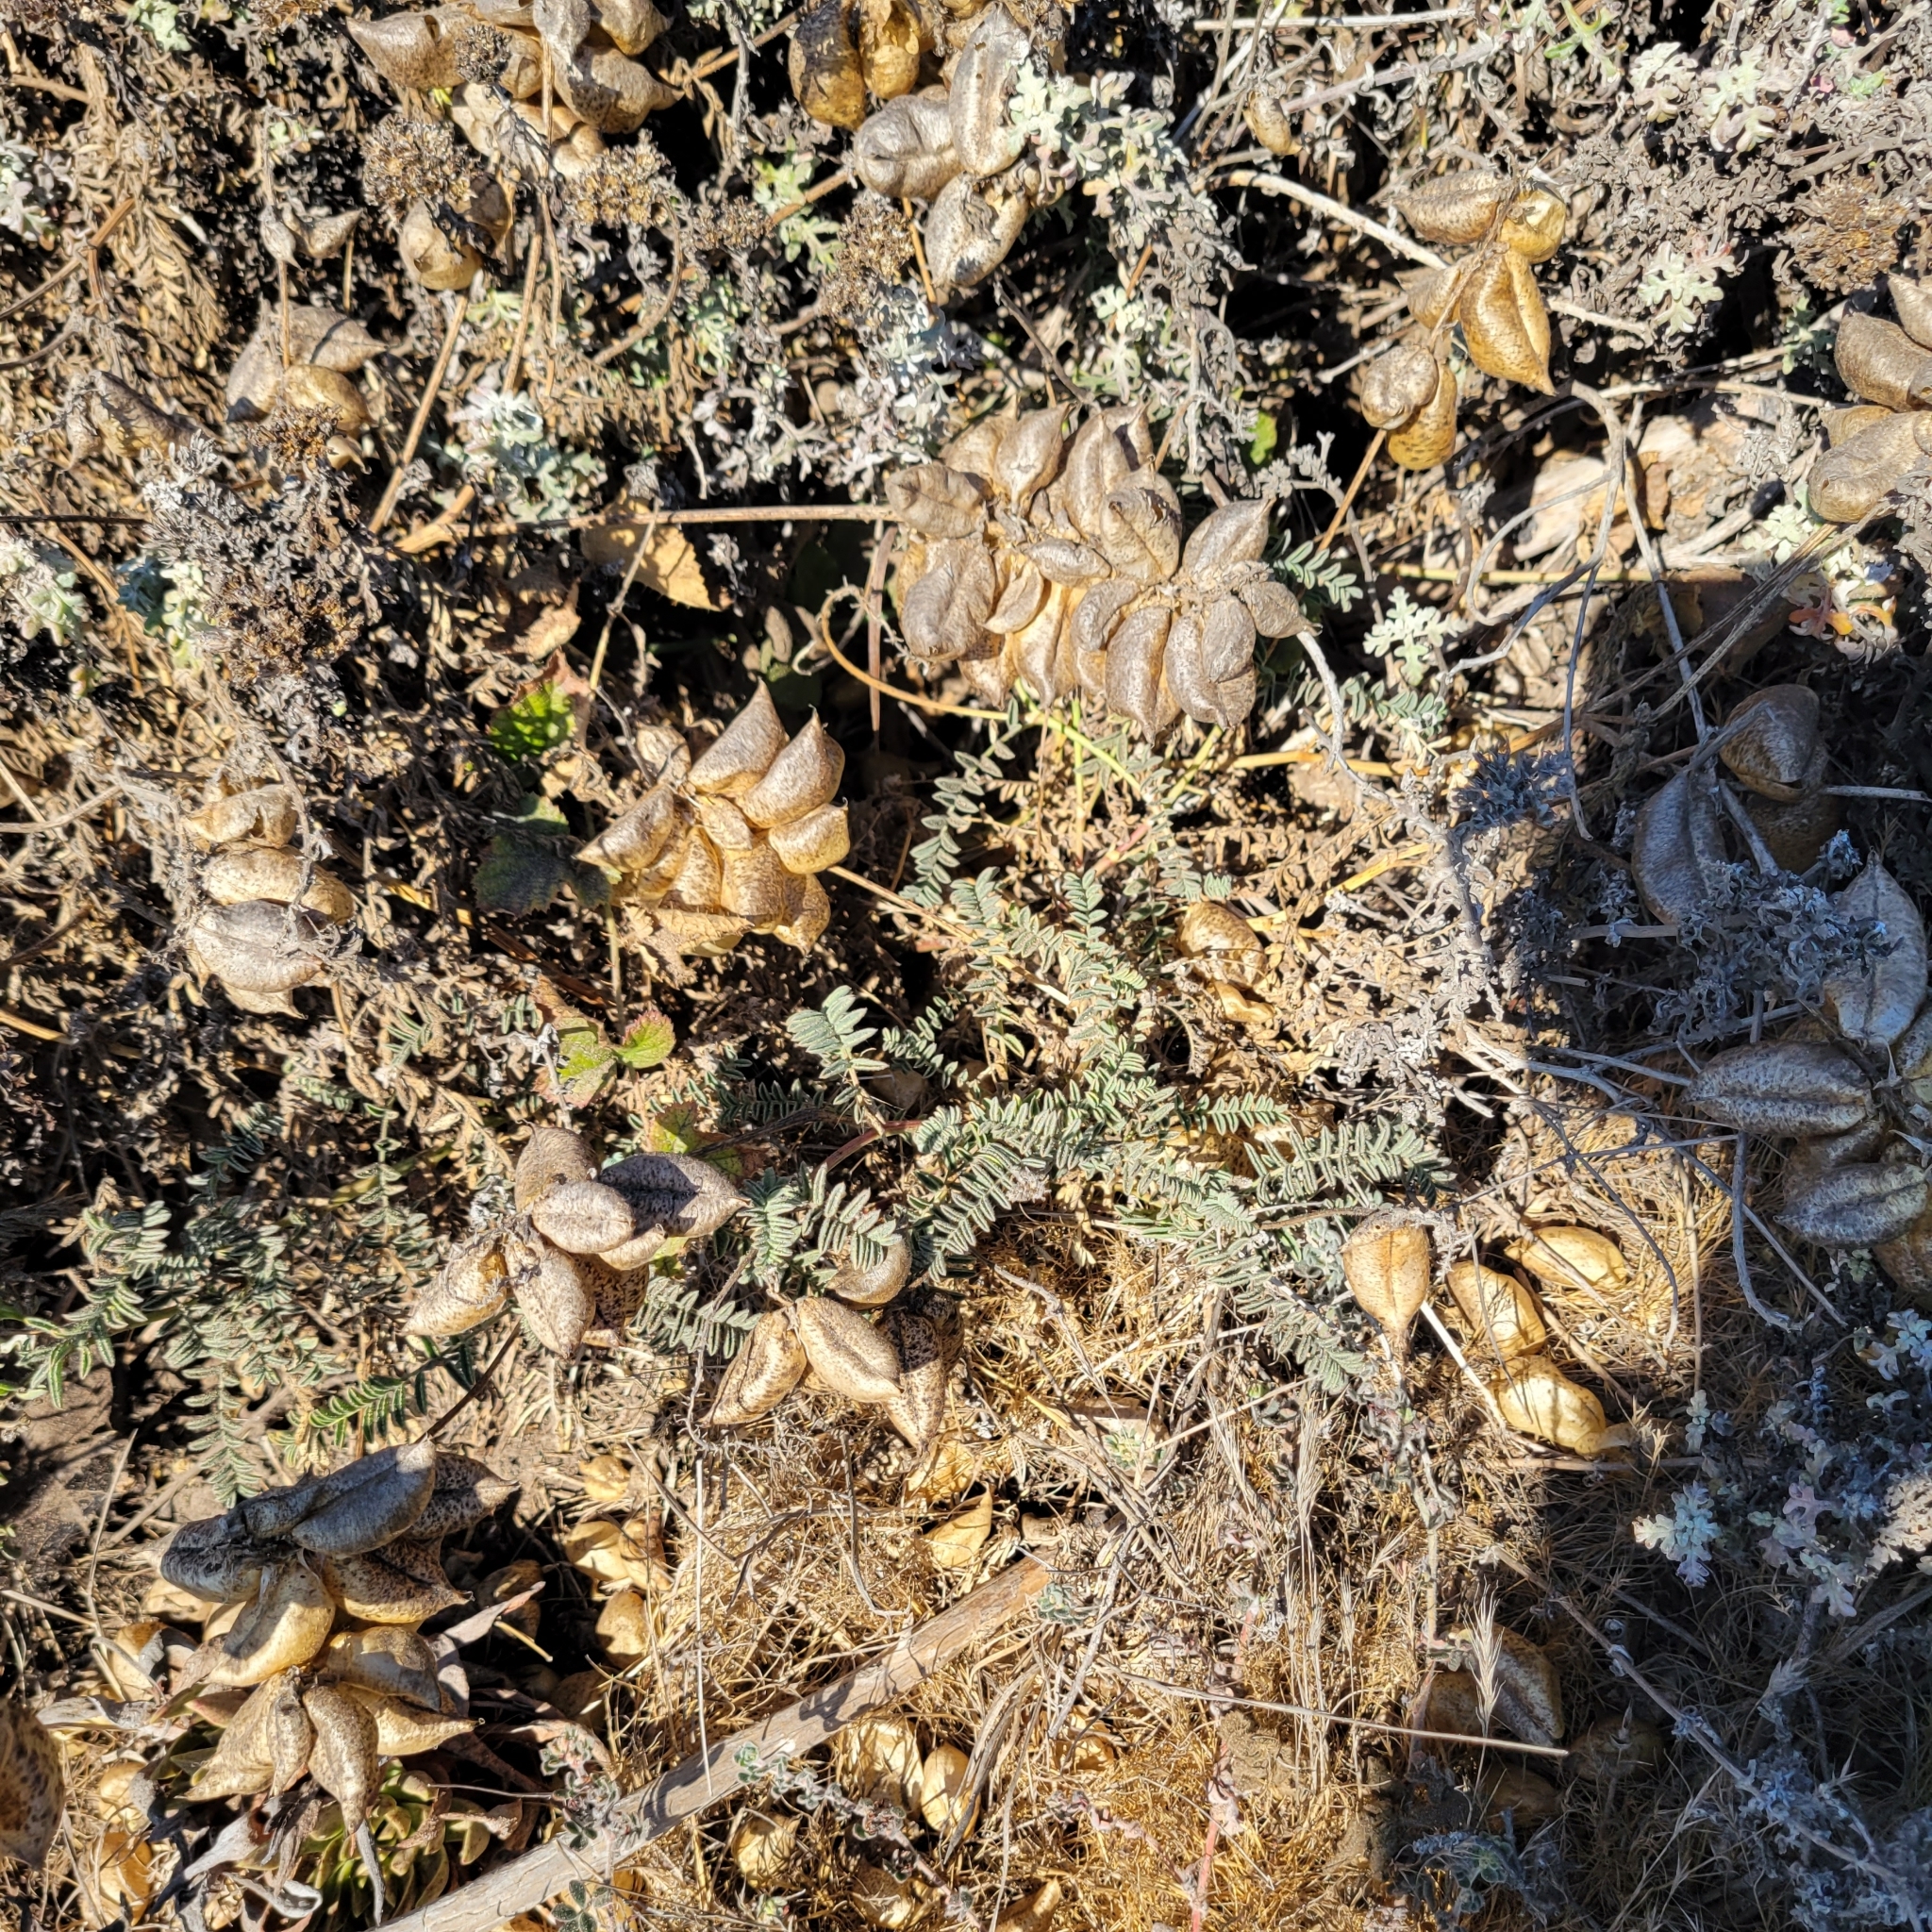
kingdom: Plantae
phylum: Tracheophyta
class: Magnoliopsida
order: Fabales
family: Fabaceae
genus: Astragalus
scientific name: Astragalus nuttallii
